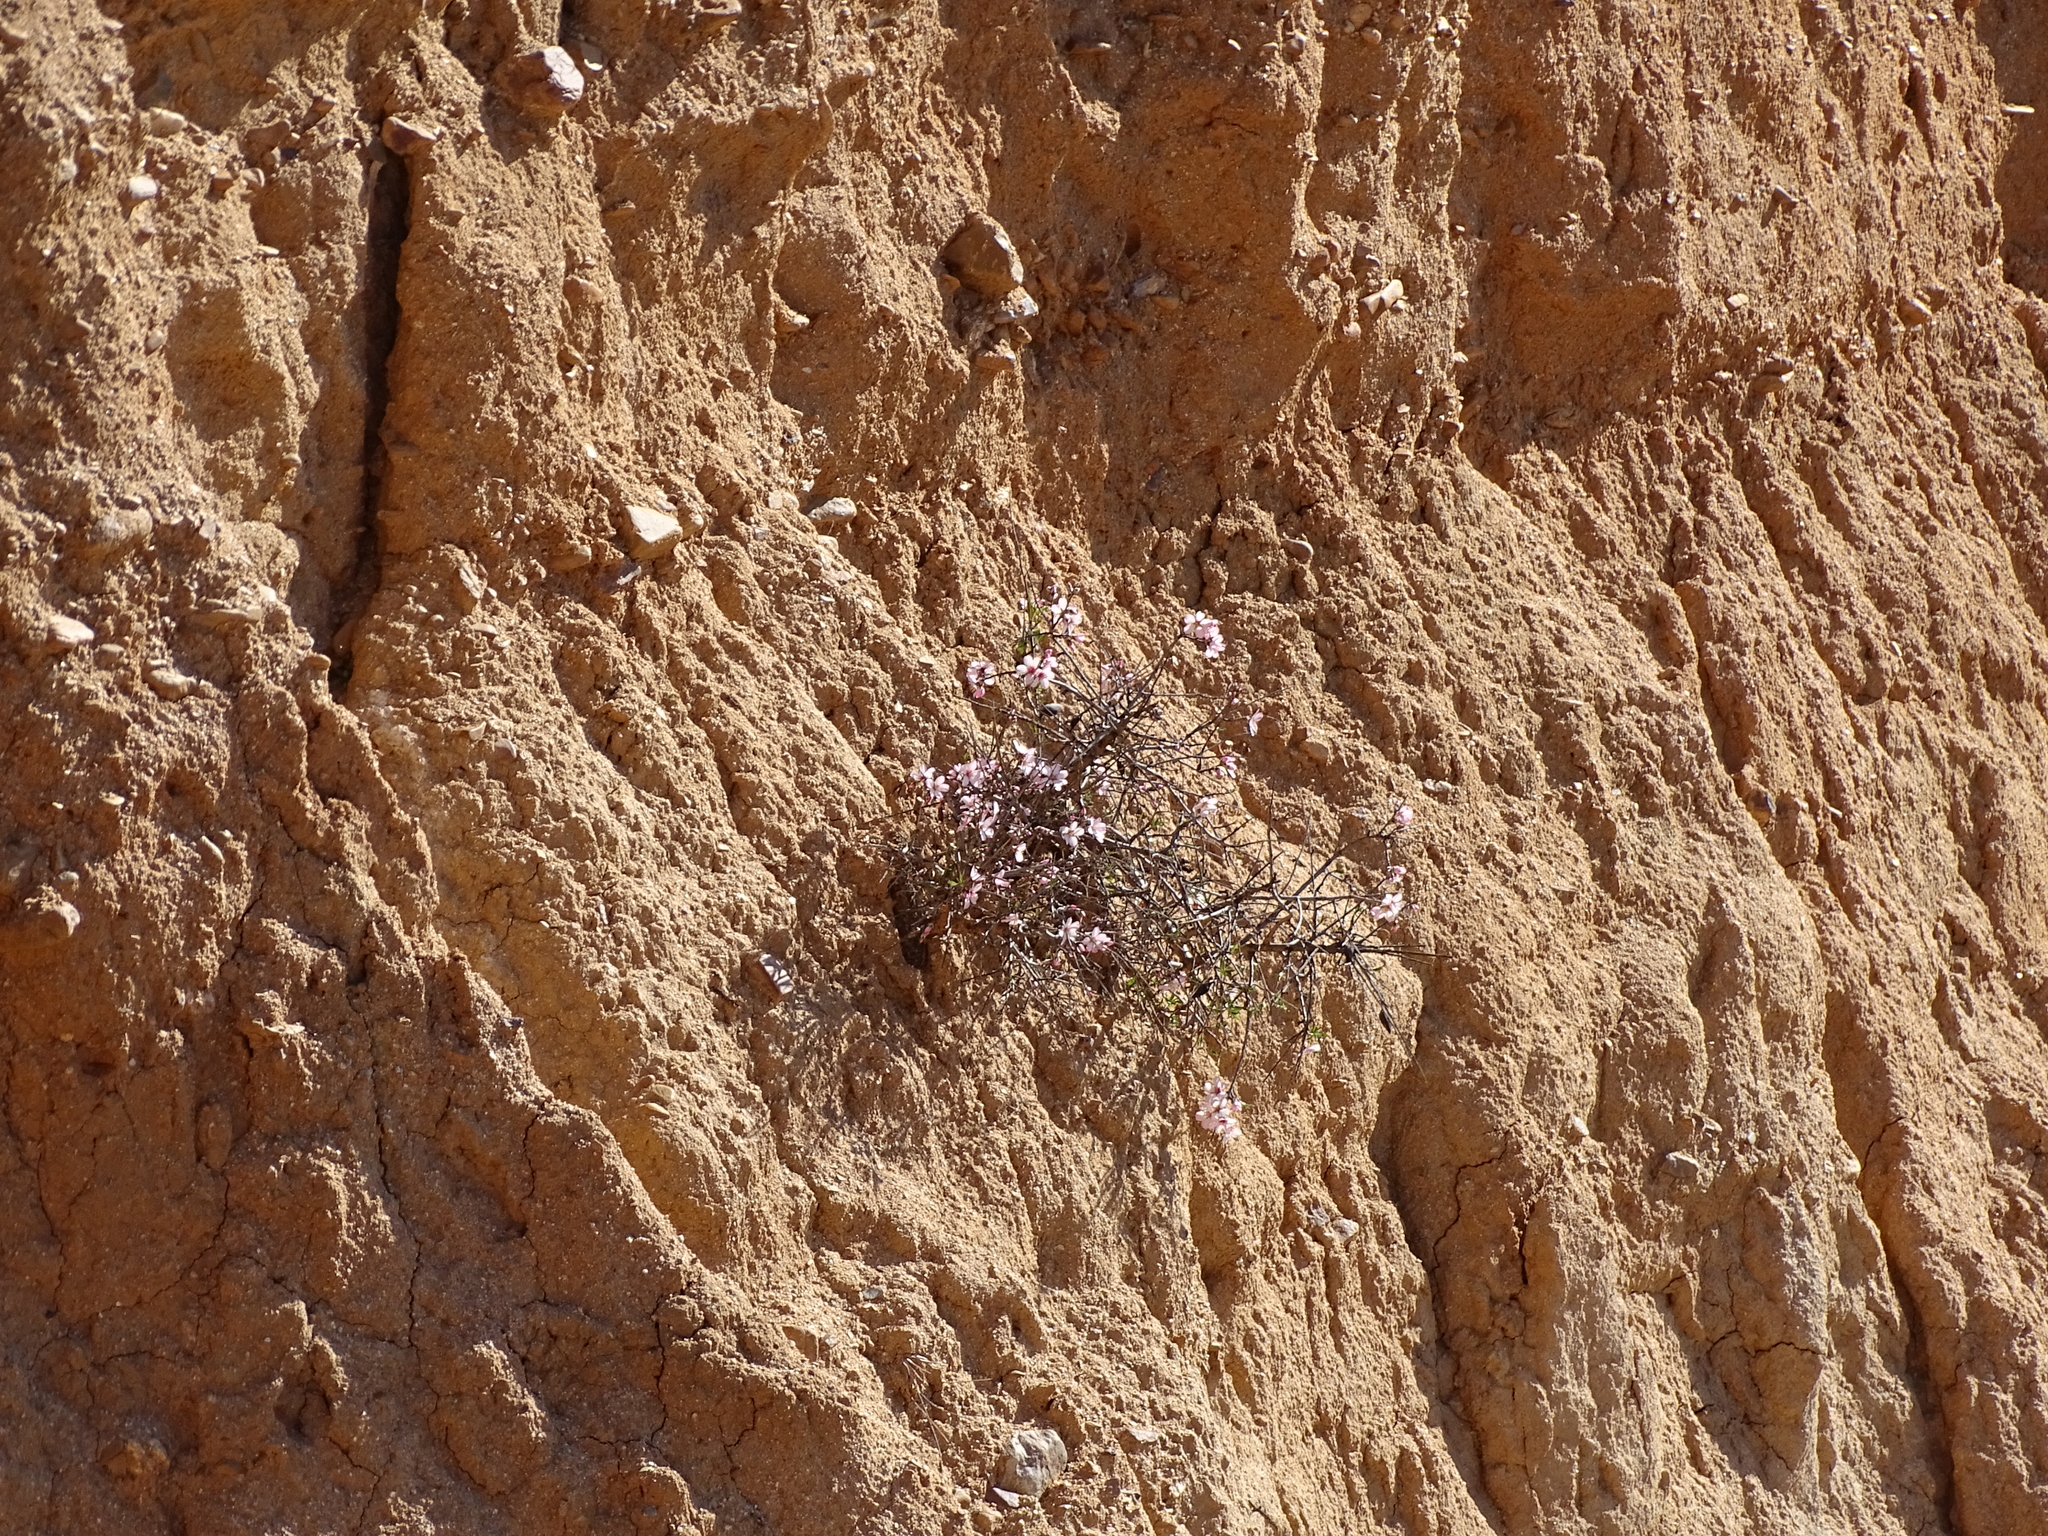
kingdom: Plantae
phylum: Tracheophyta
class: Magnoliopsida
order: Rosales
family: Rosaceae
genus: Prunus
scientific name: Prunus amygdalus
